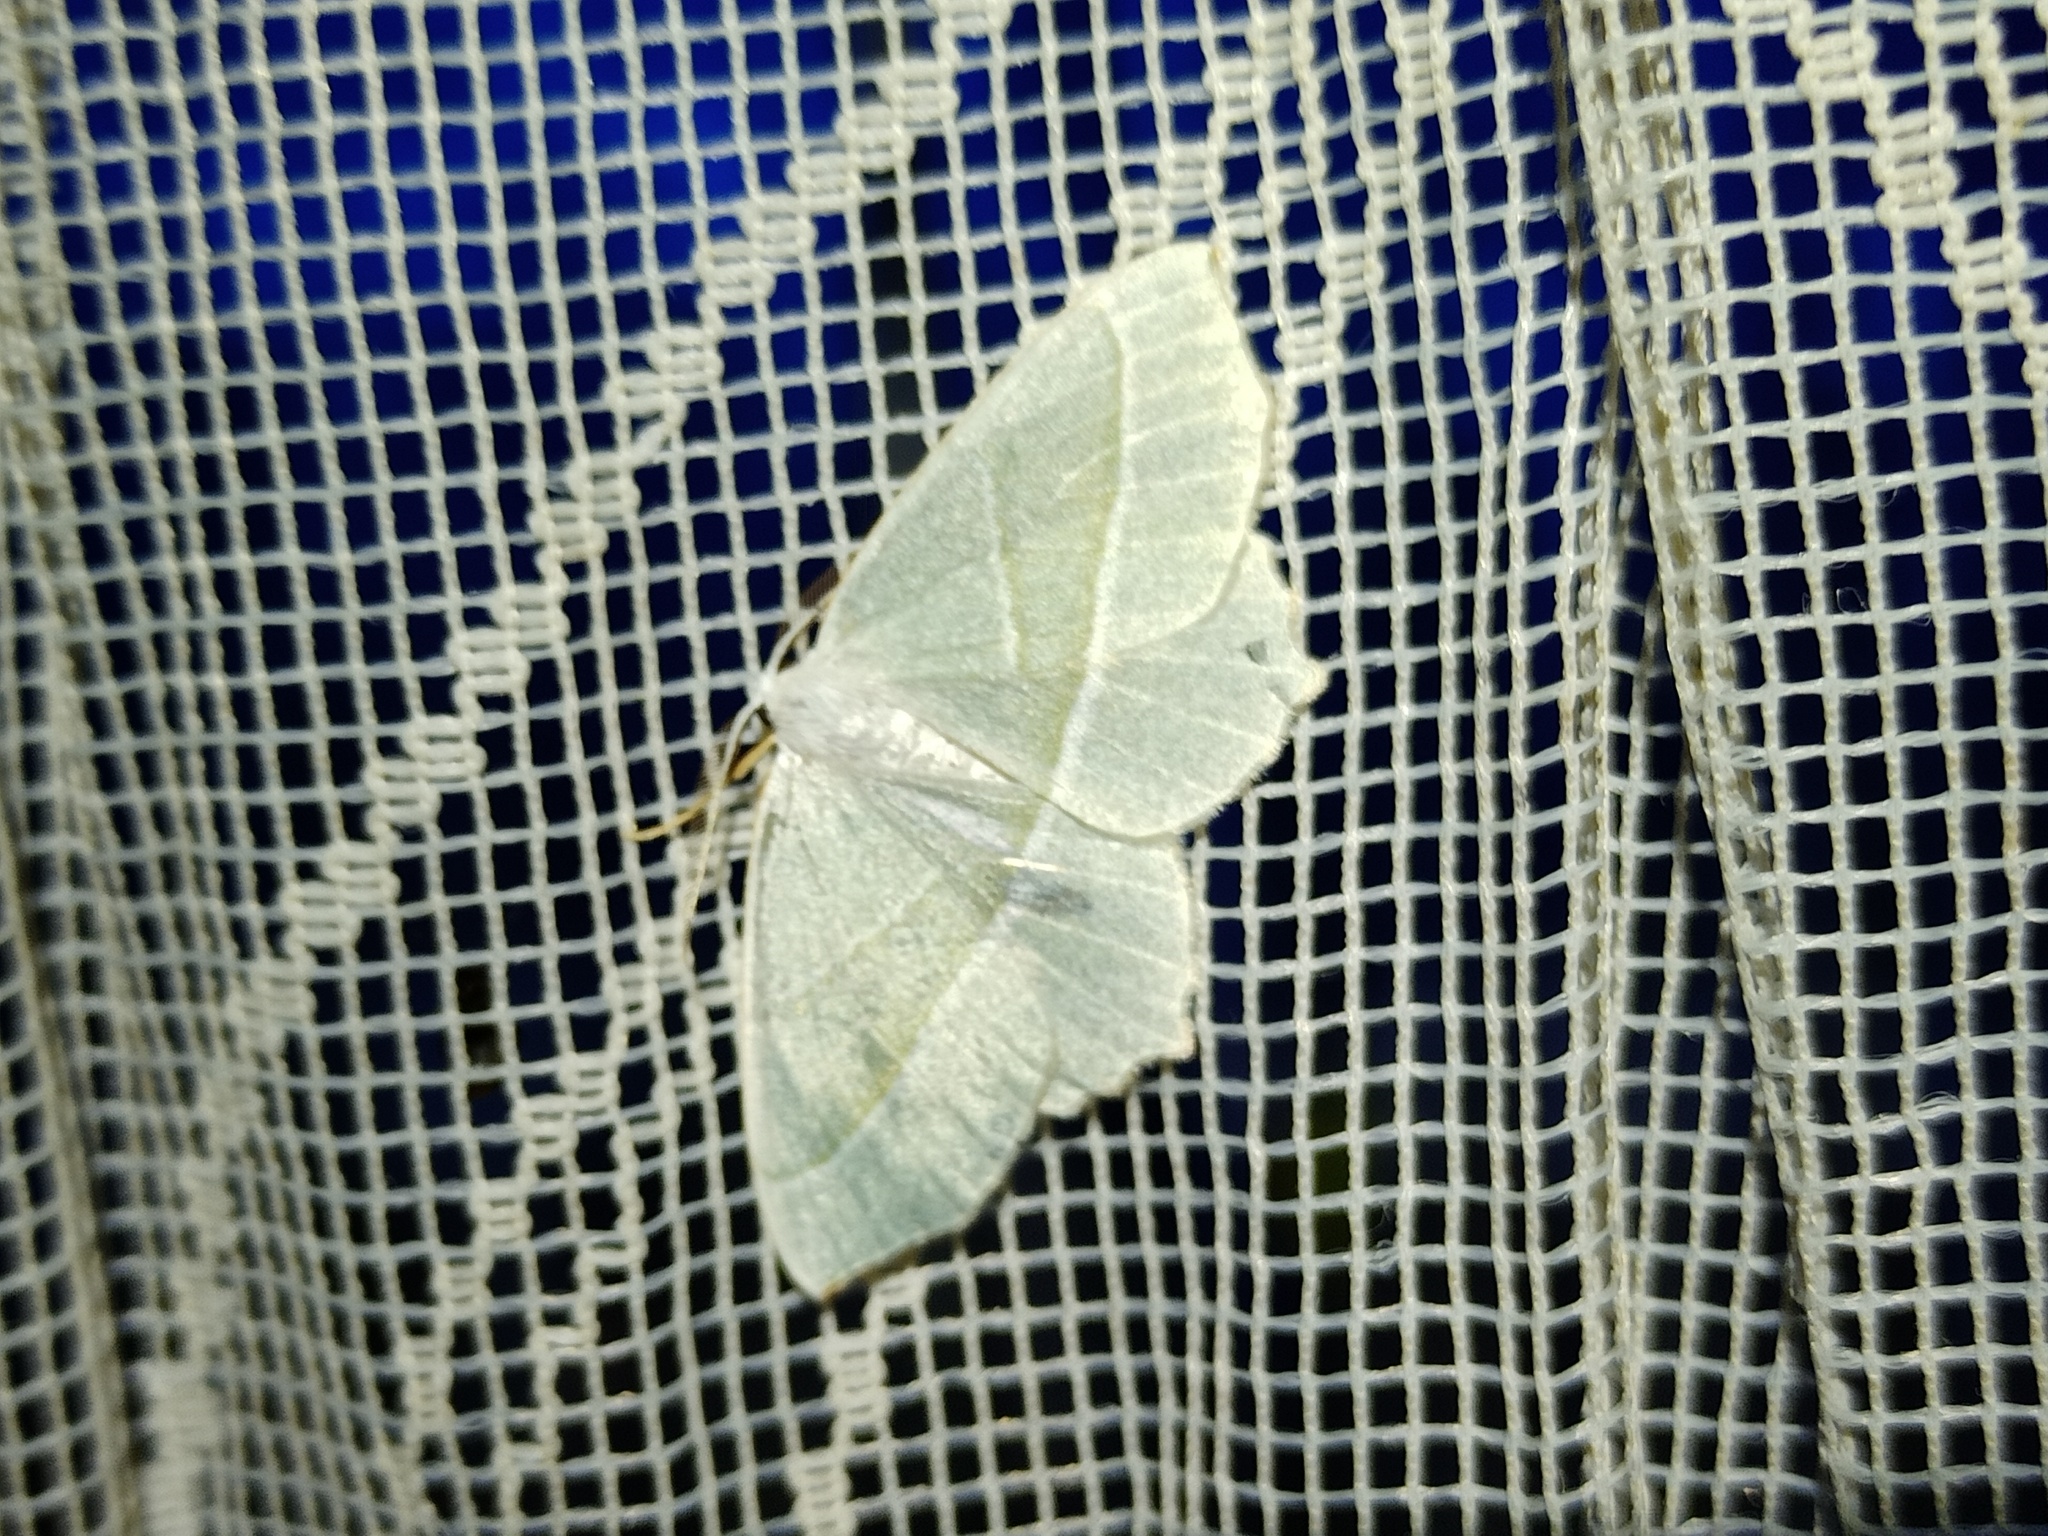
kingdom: Animalia
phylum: Arthropoda
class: Insecta
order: Lepidoptera
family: Geometridae
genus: Campaea
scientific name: Campaea margaritaria
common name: Light emerald
